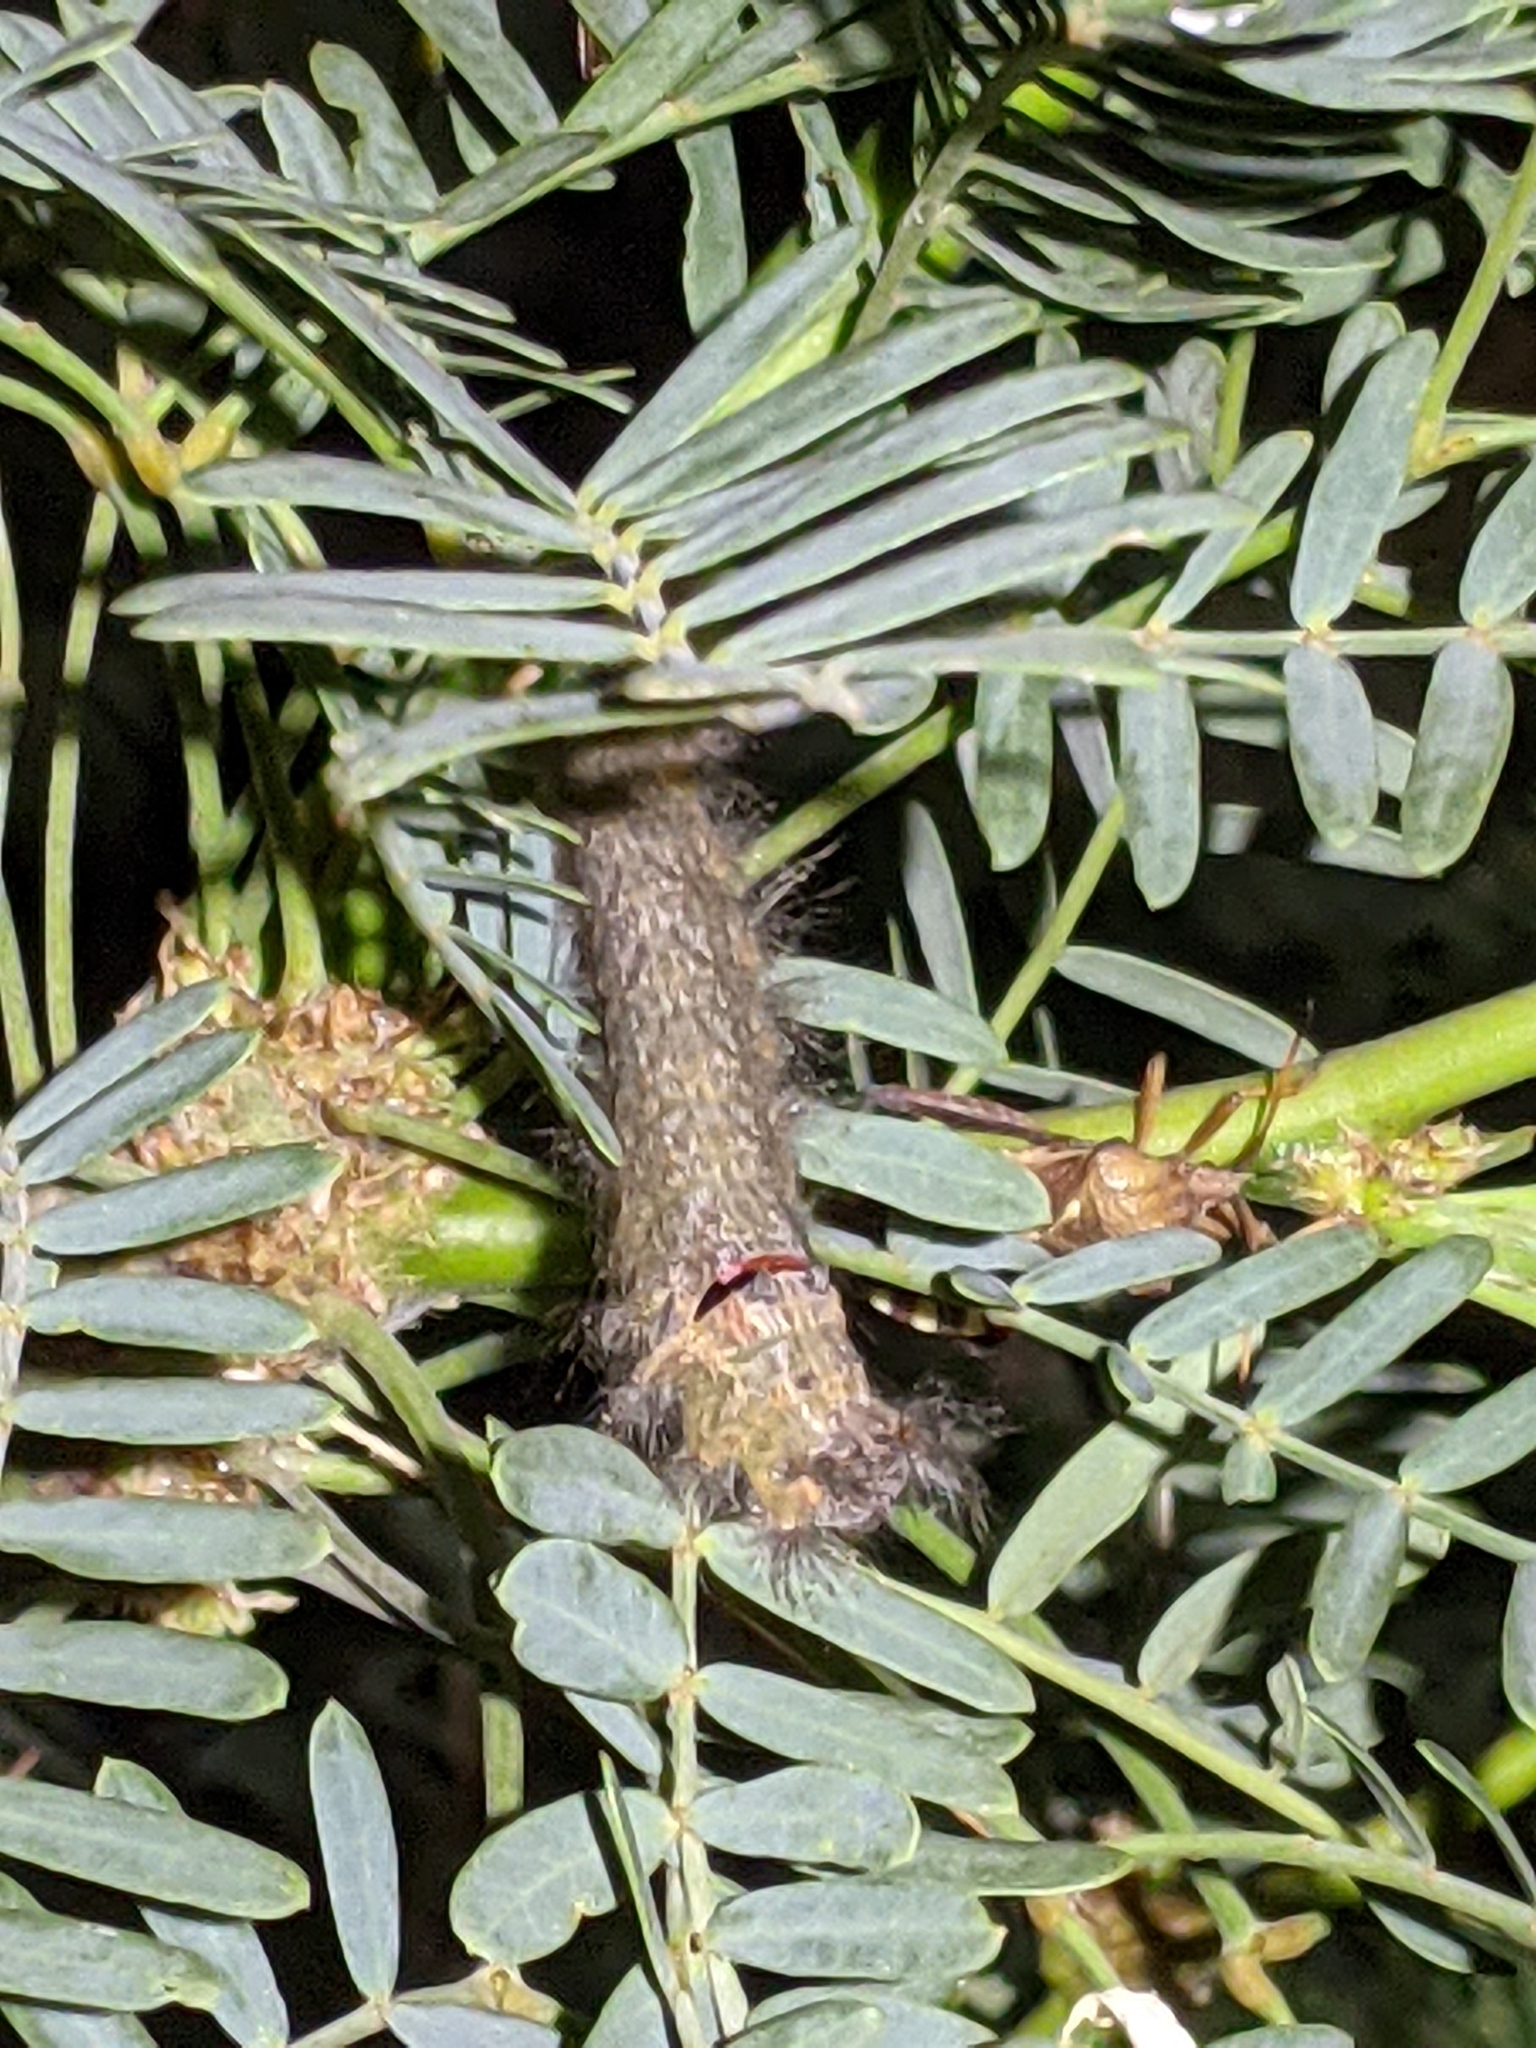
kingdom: Animalia
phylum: Arthropoda
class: Insecta
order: Lepidoptera
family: Lasiocampidae
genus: Apotolype
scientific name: Apotolype brevicrista
